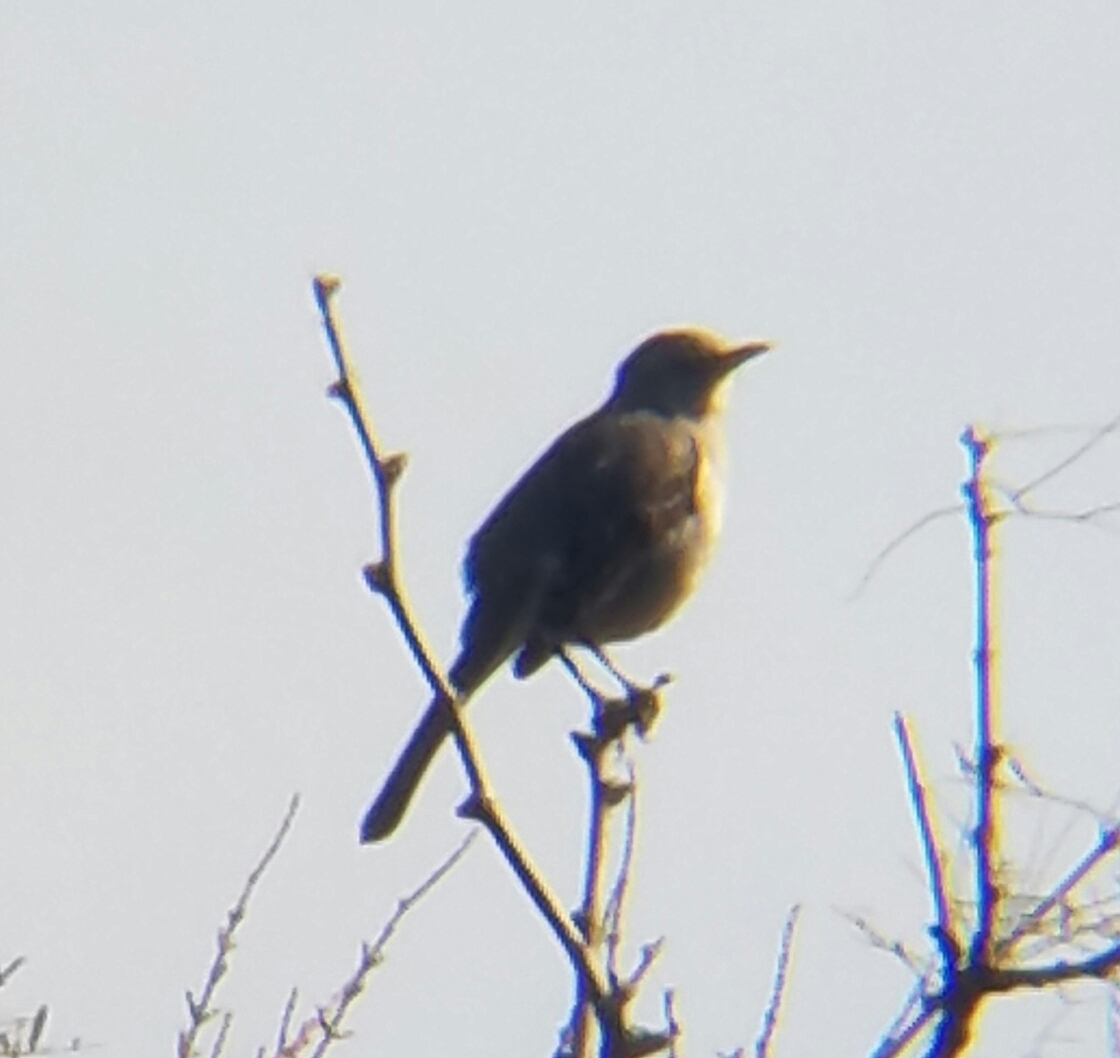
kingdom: Animalia
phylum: Chordata
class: Aves
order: Passeriformes
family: Mimidae
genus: Mimus
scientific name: Mimus polyglottos
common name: Northern mockingbird
